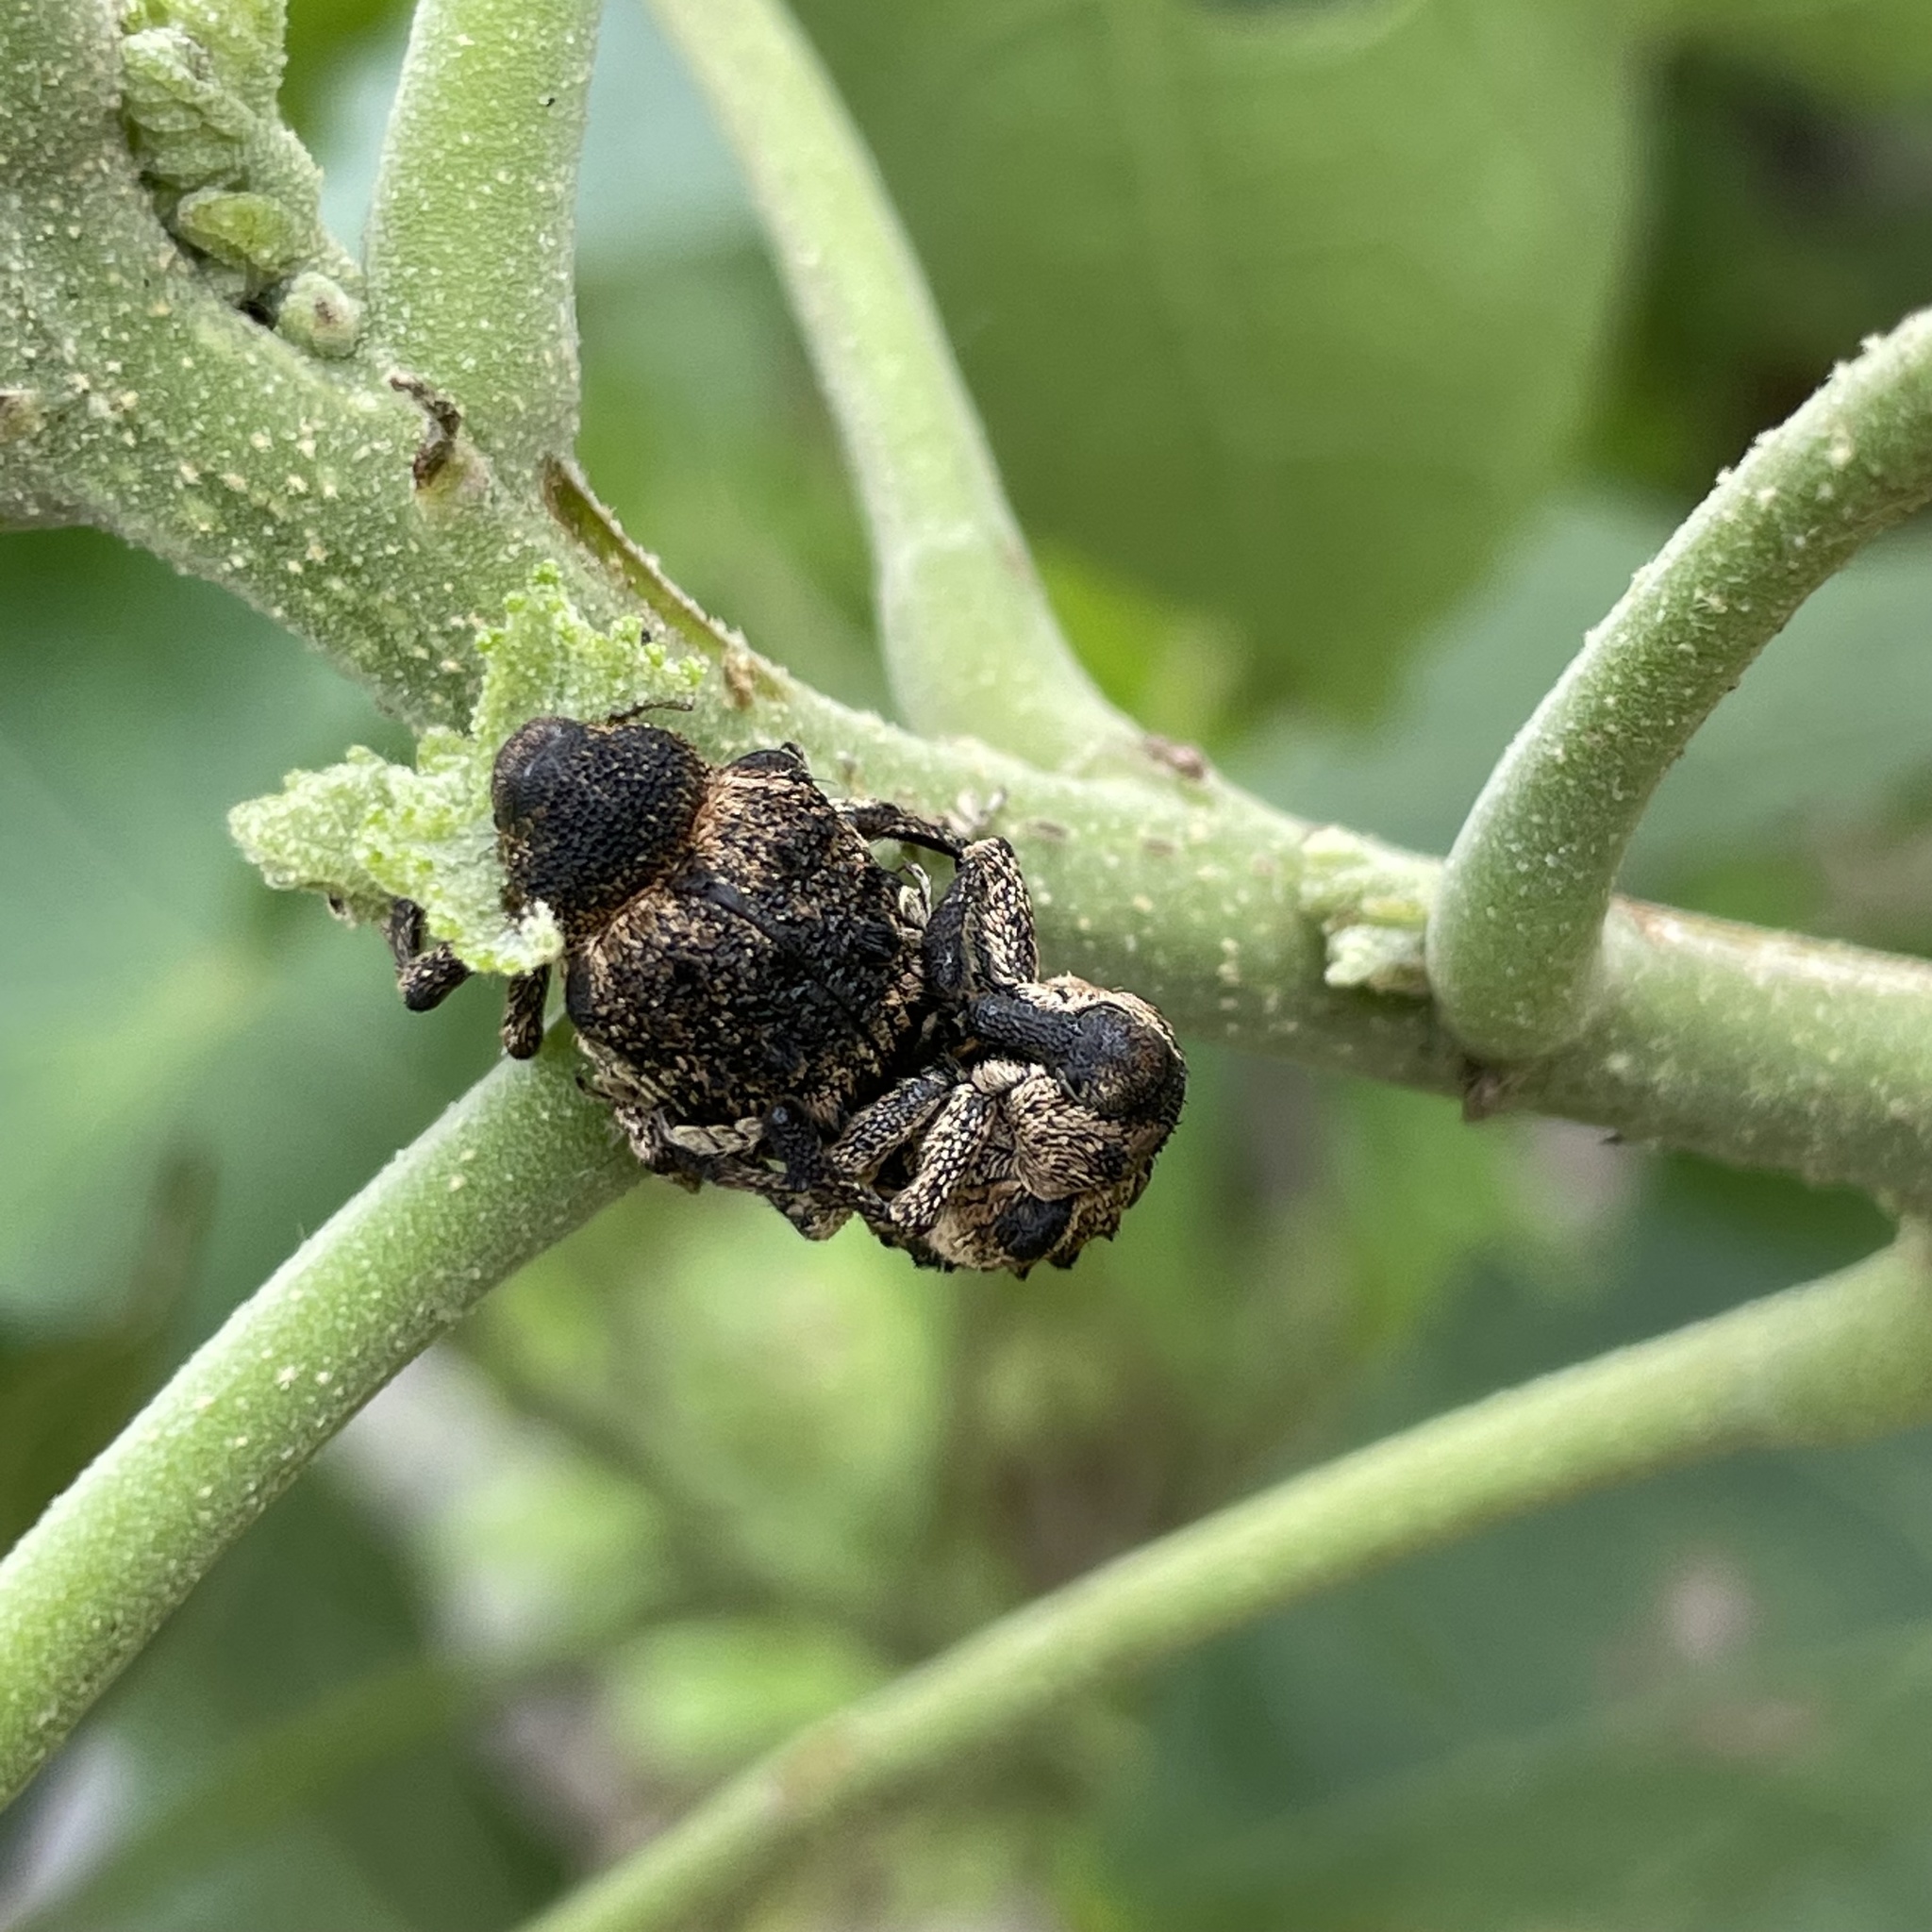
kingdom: Animalia
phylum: Arthropoda
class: Insecta
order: Coleoptera
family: Brachyceridae
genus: Desmidophorus
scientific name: Desmidophorus crassus
